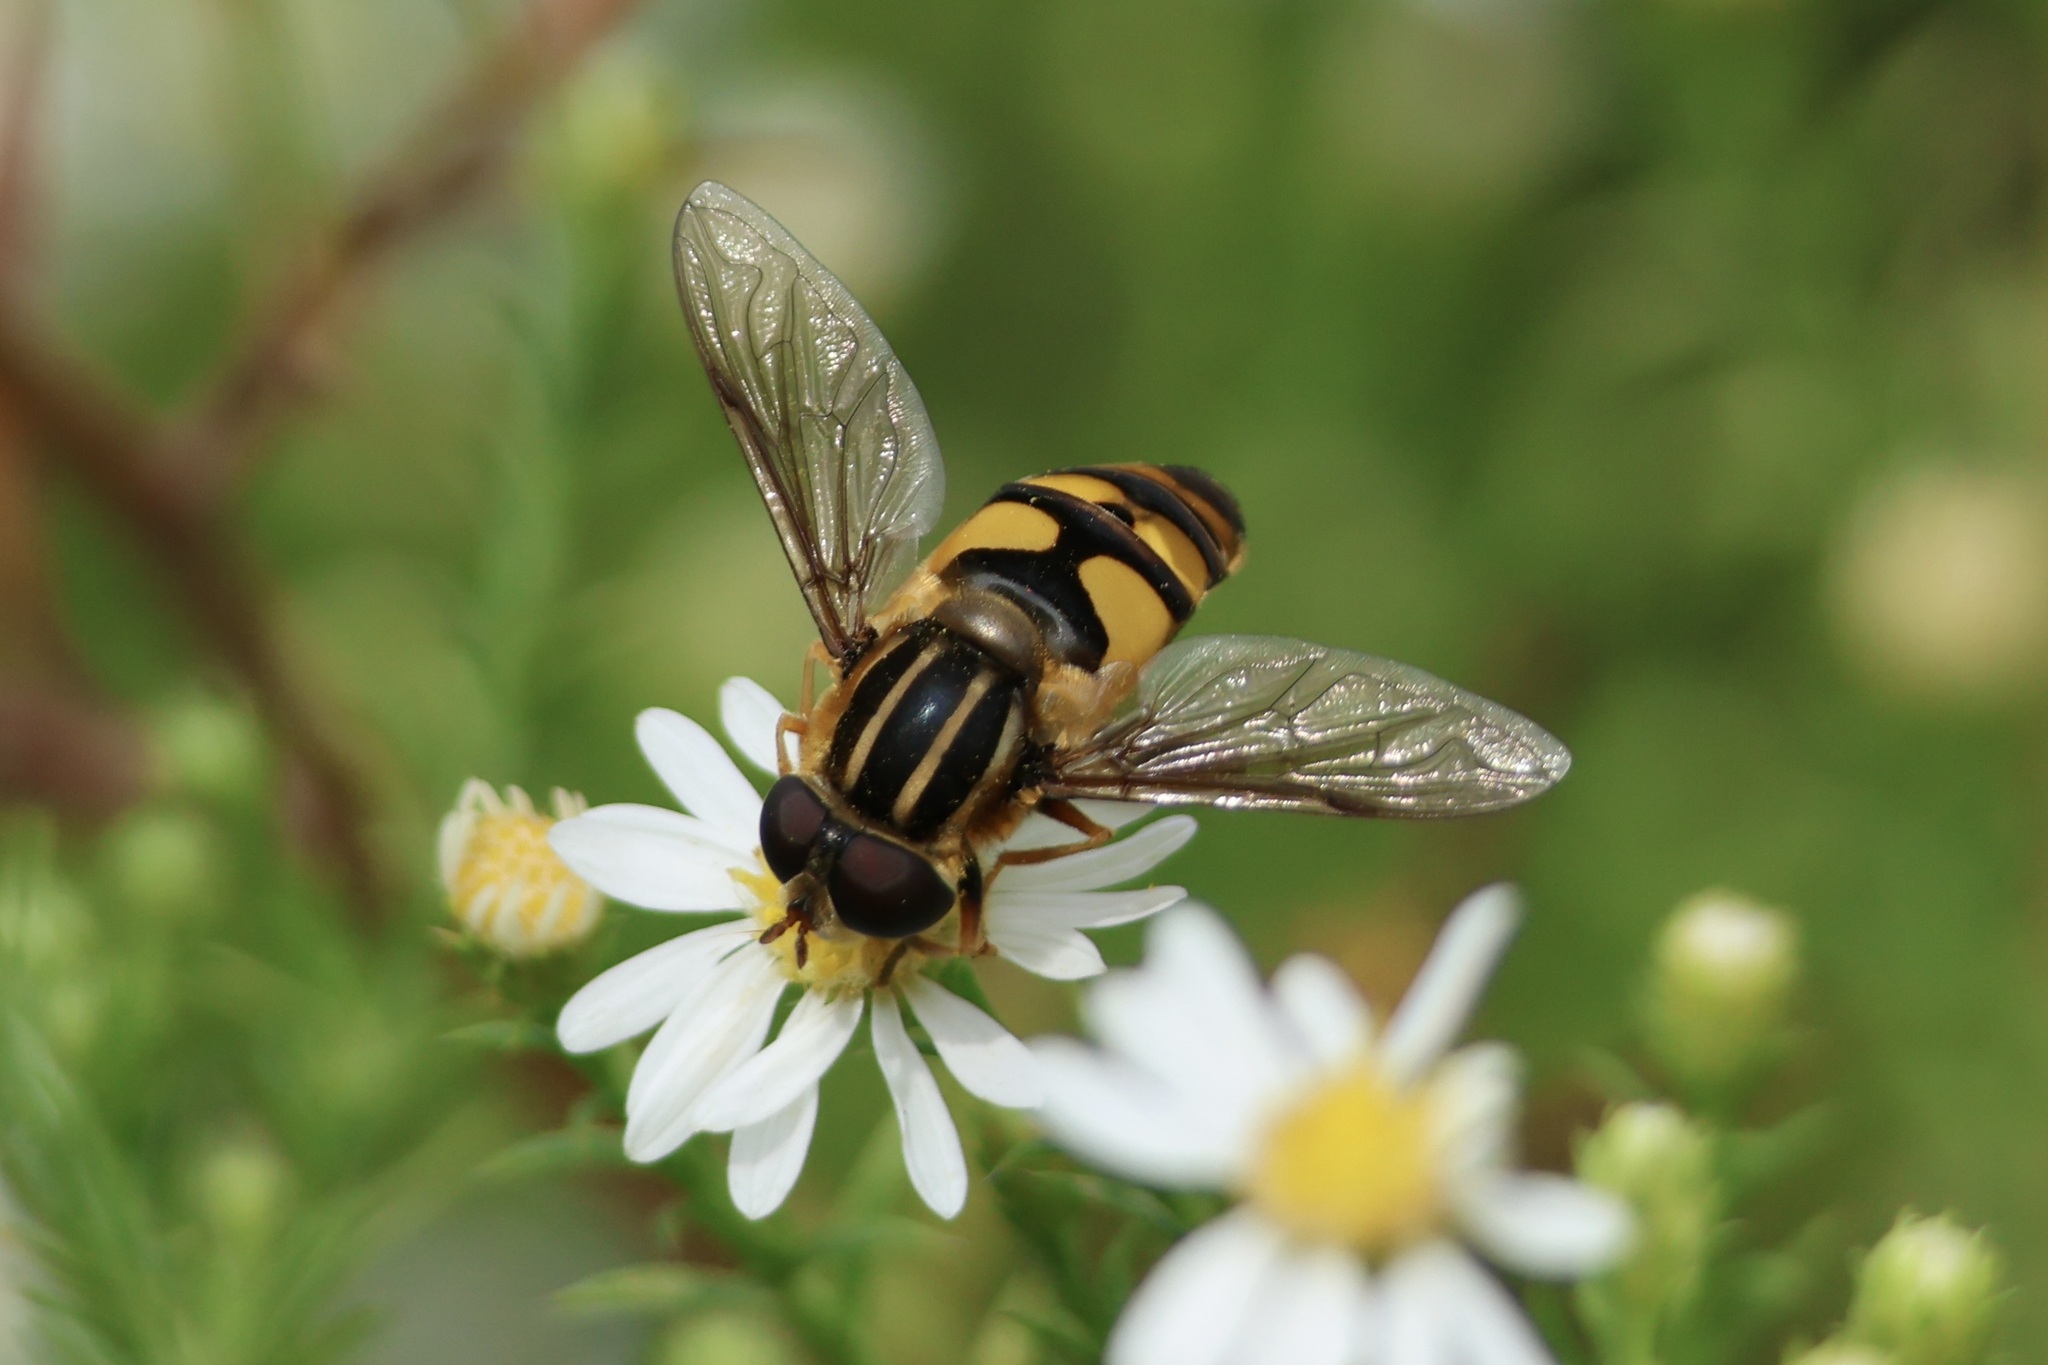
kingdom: Animalia
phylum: Arthropoda
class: Insecta
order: Diptera
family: Syrphidae
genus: Helophilus
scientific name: Helophilus fasciatus
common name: Narrow-headed marsh fly
